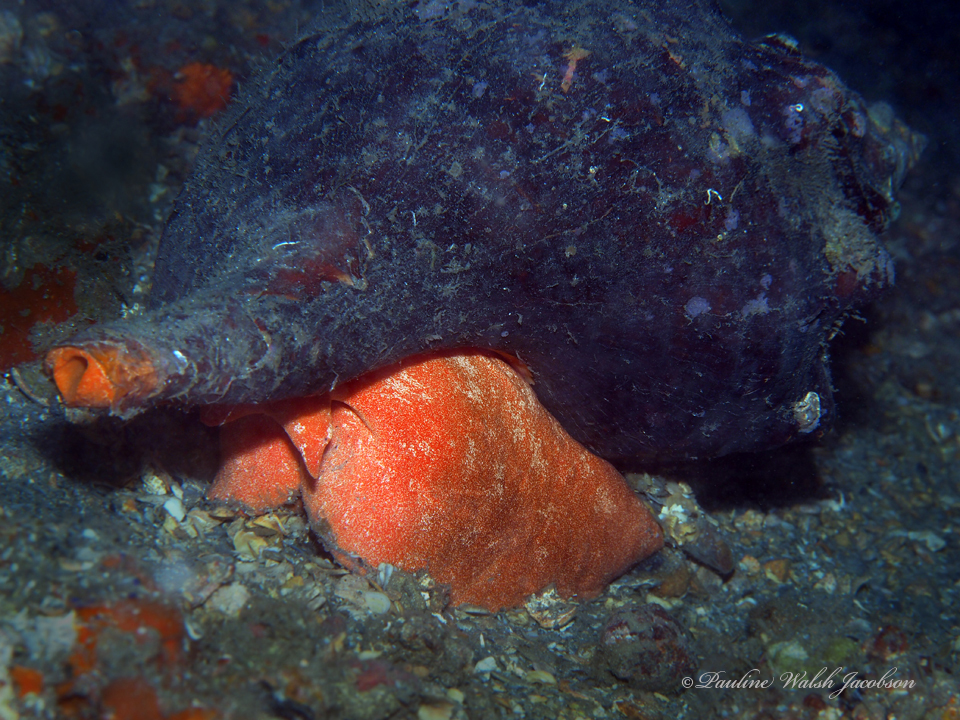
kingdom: Animalia
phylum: Mollusca
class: Gastropoda
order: Neogastropoda
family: Fasciolariidae
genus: Triplofusus
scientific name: Triplofusus giganteus
